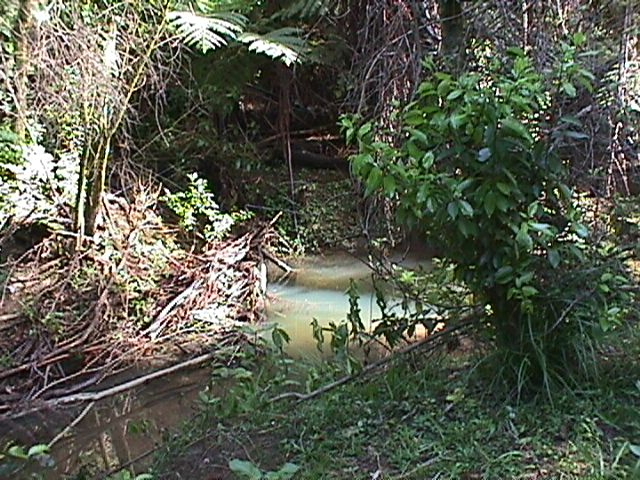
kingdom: Plantae
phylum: Tracheophyta
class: Magnoliopsida
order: Malpighiales
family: Violaceae
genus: Melicytus
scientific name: Melicytus ramiflorus
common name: Mahoe
